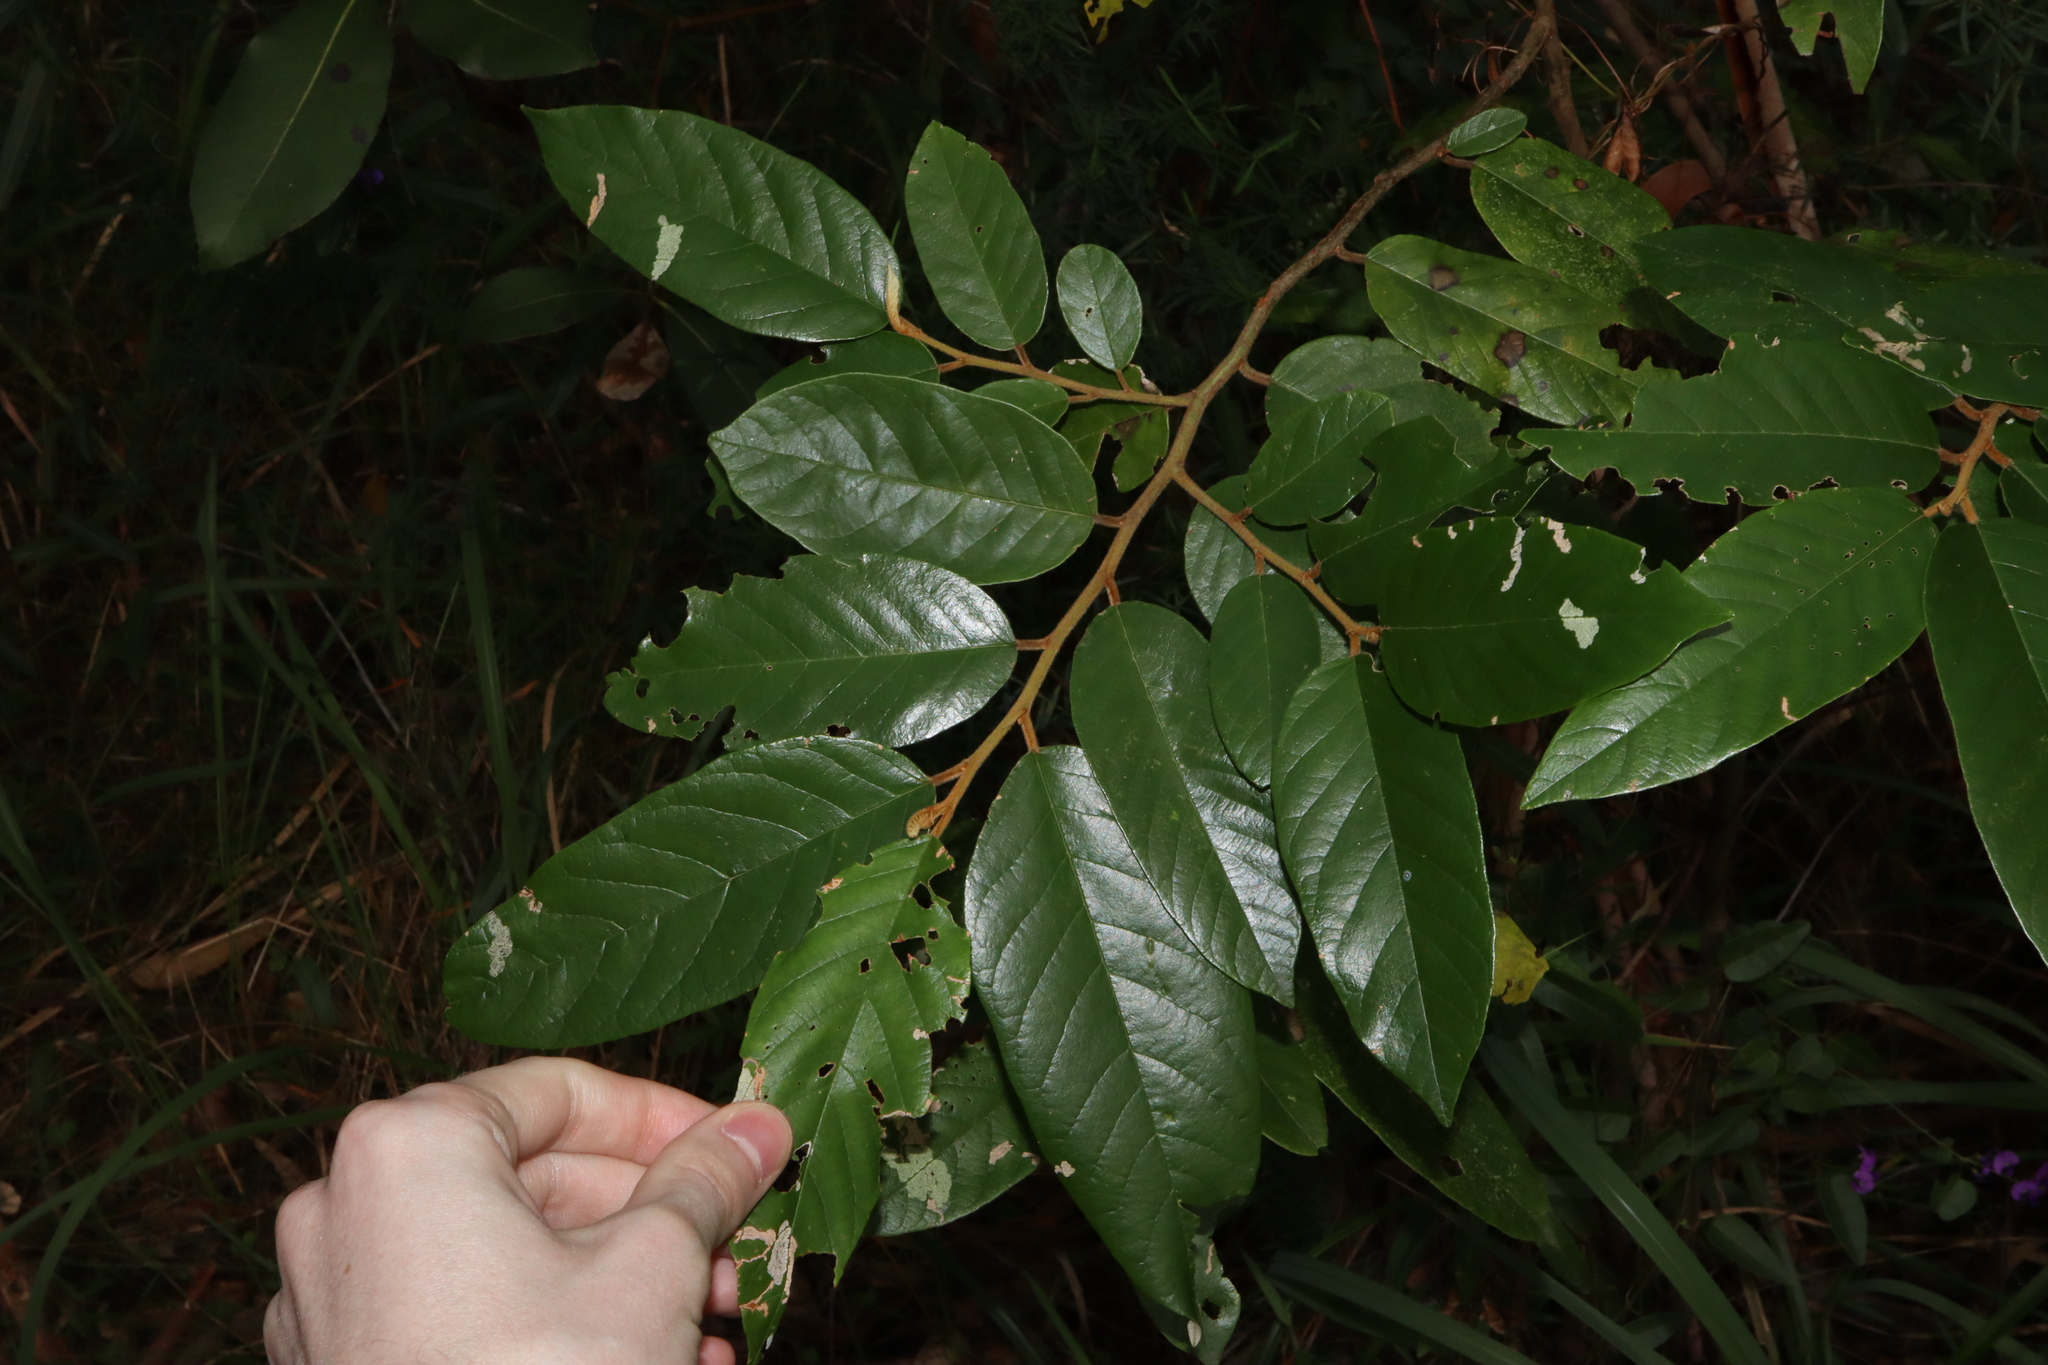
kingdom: Plantae
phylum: Tracheophyta
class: Magnoliopsida
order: Rosales
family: Rhamnaceae
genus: Alphitonia
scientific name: Alphitonia excelsa
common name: Red ash
